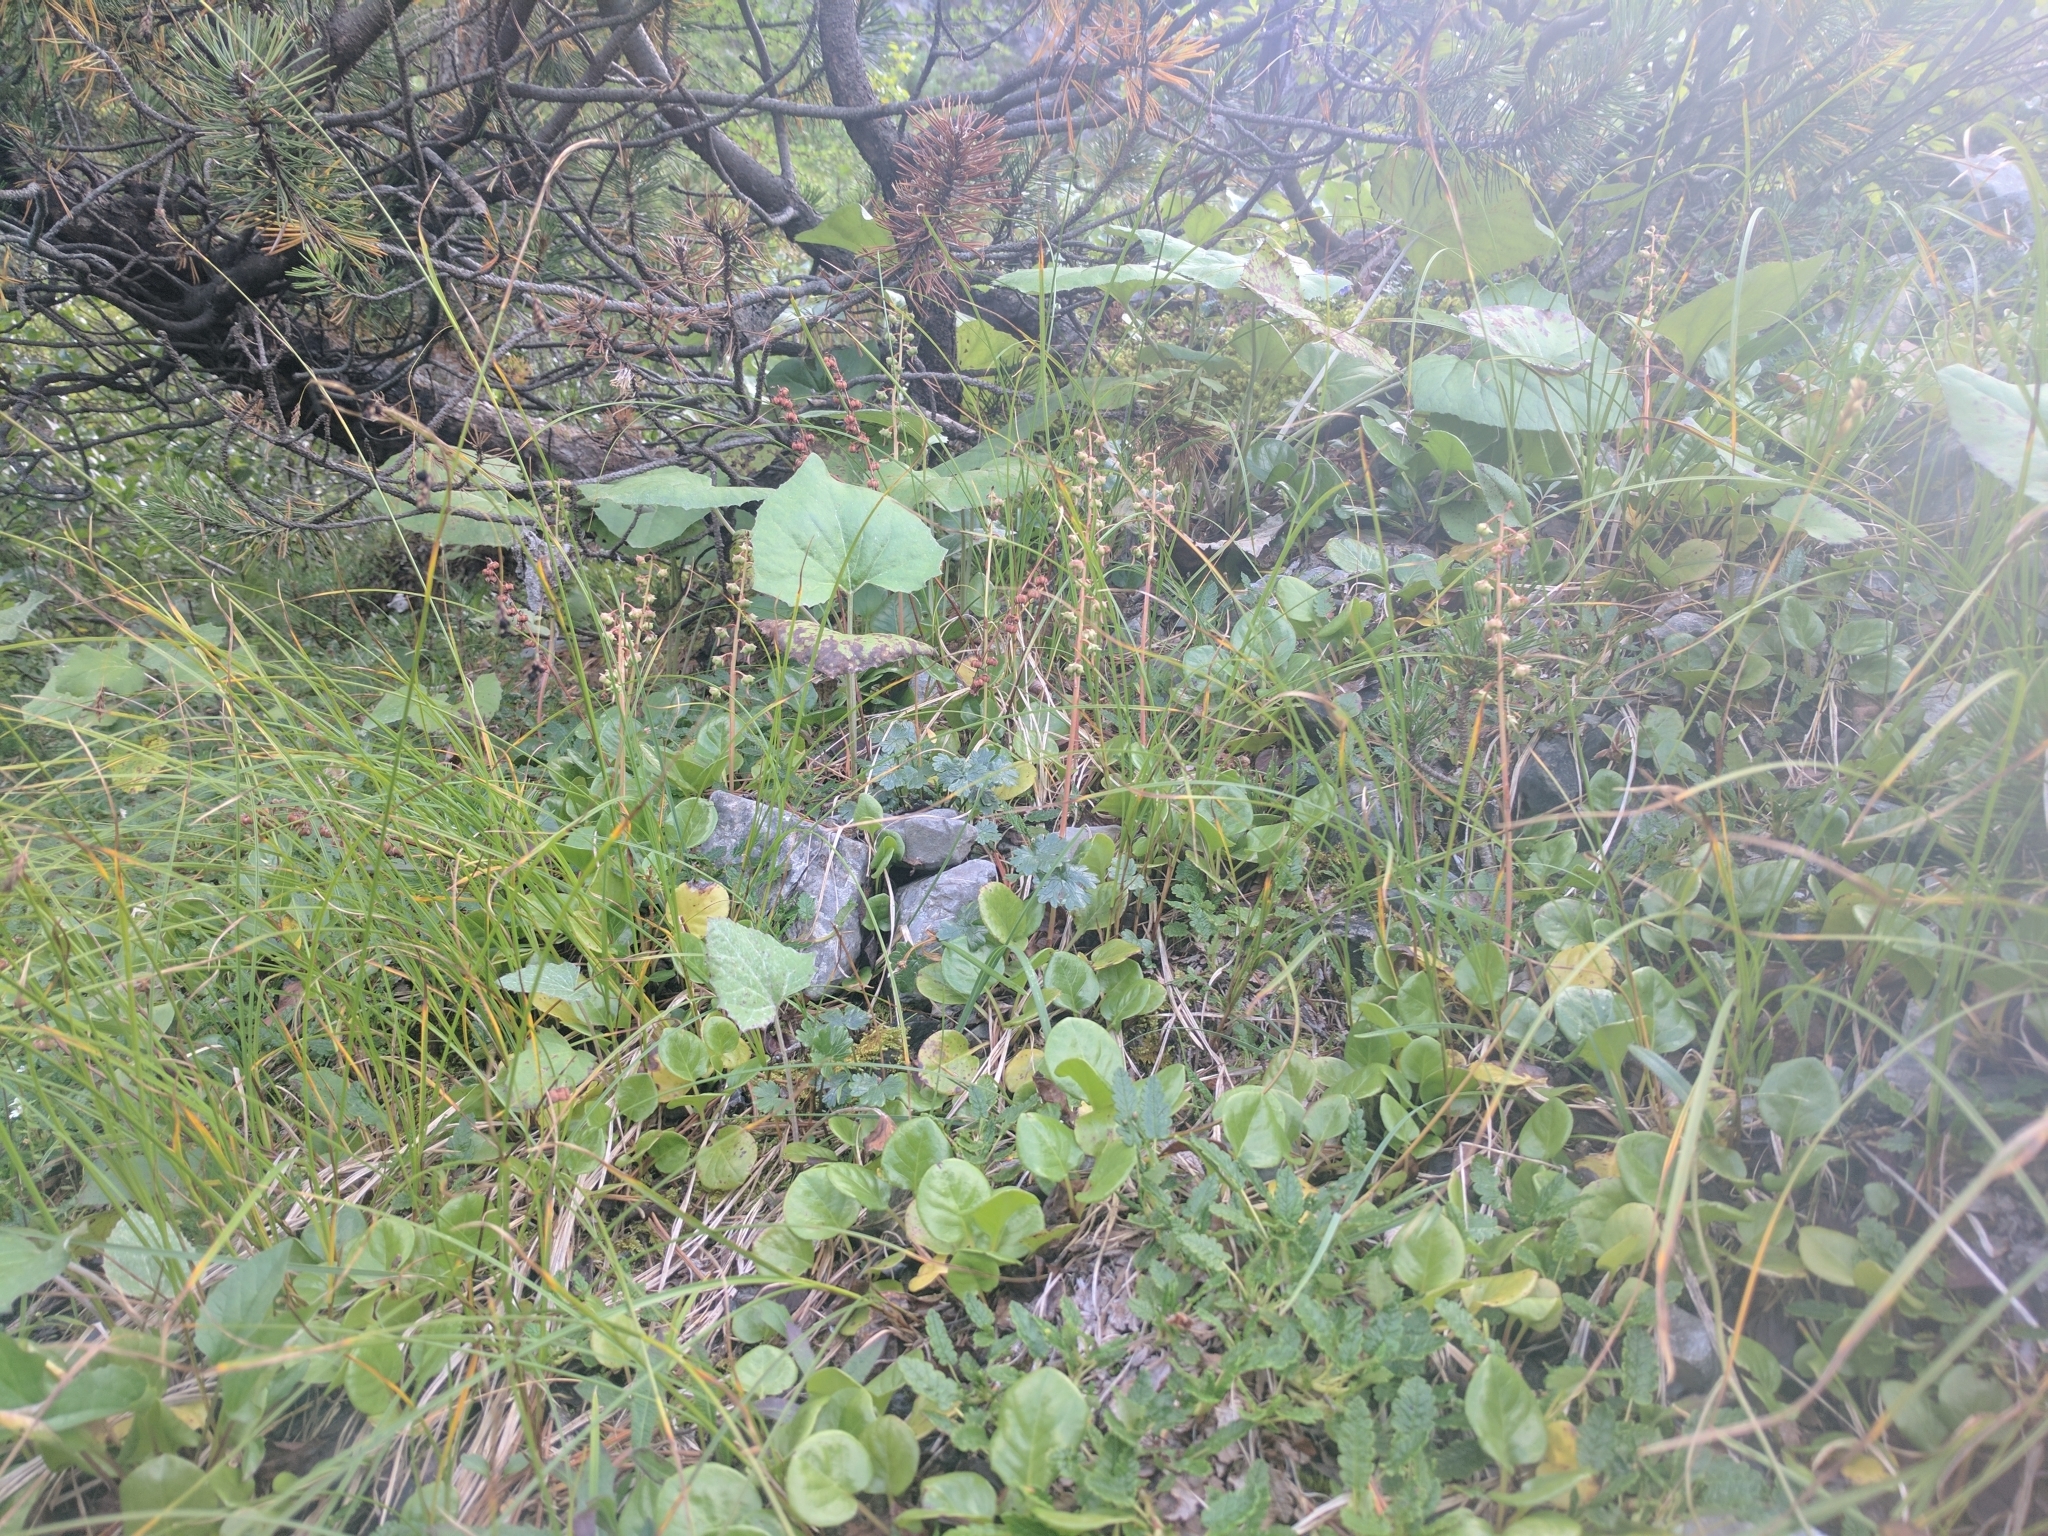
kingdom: Plantae
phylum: Tracheophyta
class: Magnoliopsida
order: Ericales
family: Ericaceae
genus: Pyrola
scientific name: Pyrola rotundifolia
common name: Round-leaved wintergreen
